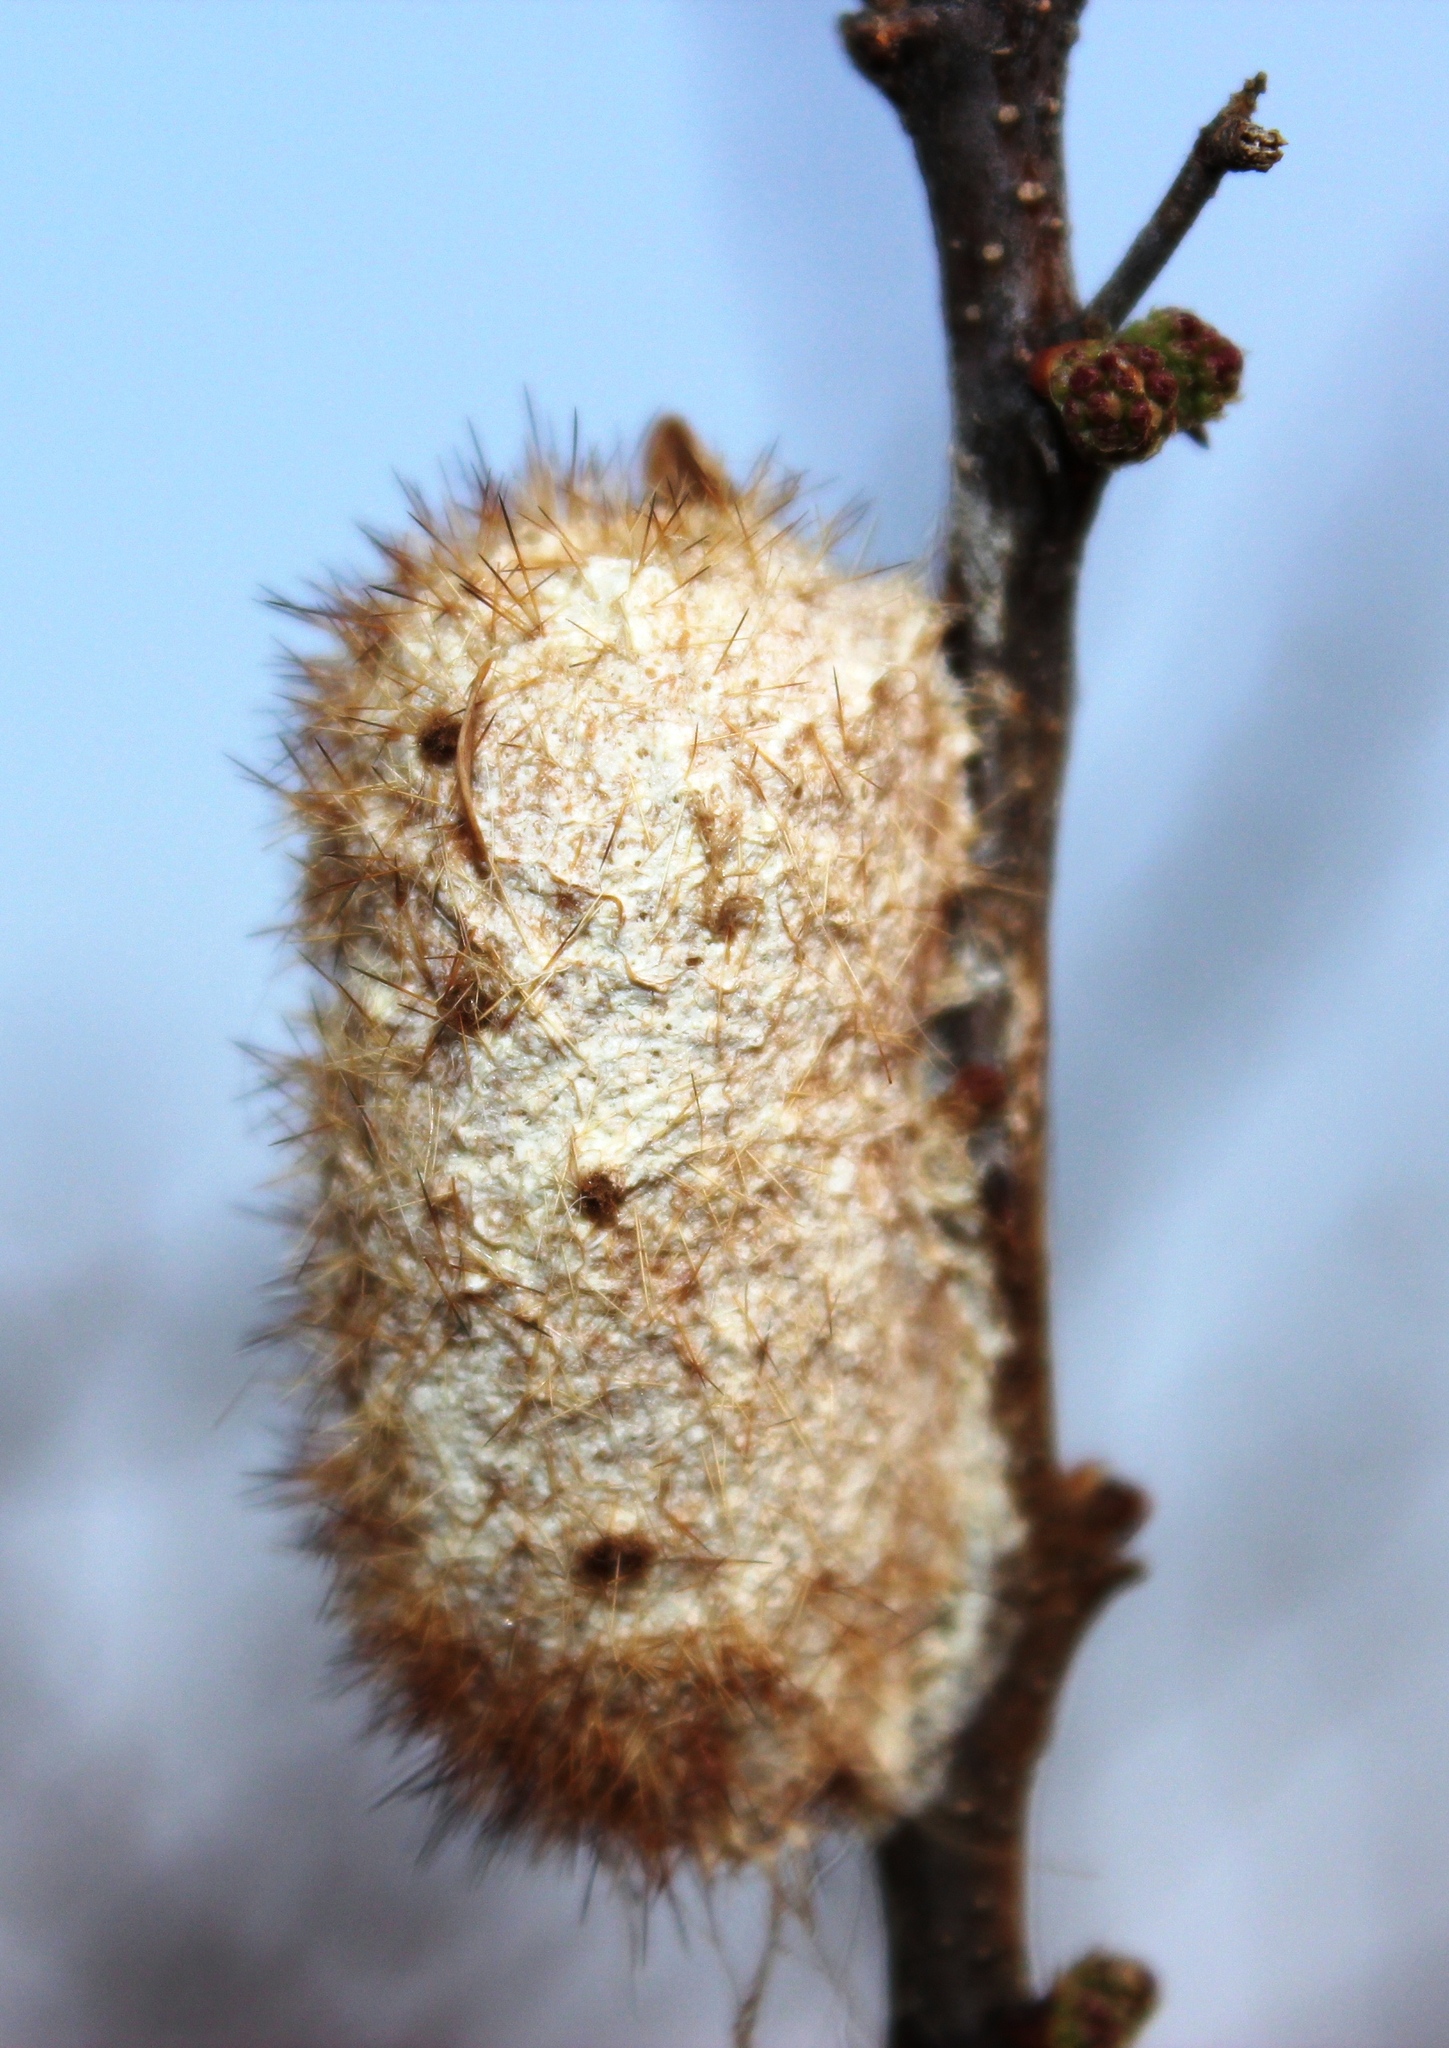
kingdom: Animalia
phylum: Arthropoda
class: Insecta
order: Lepidoptera
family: Lasiocampidae
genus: Gonometa
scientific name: Gonometa postica
